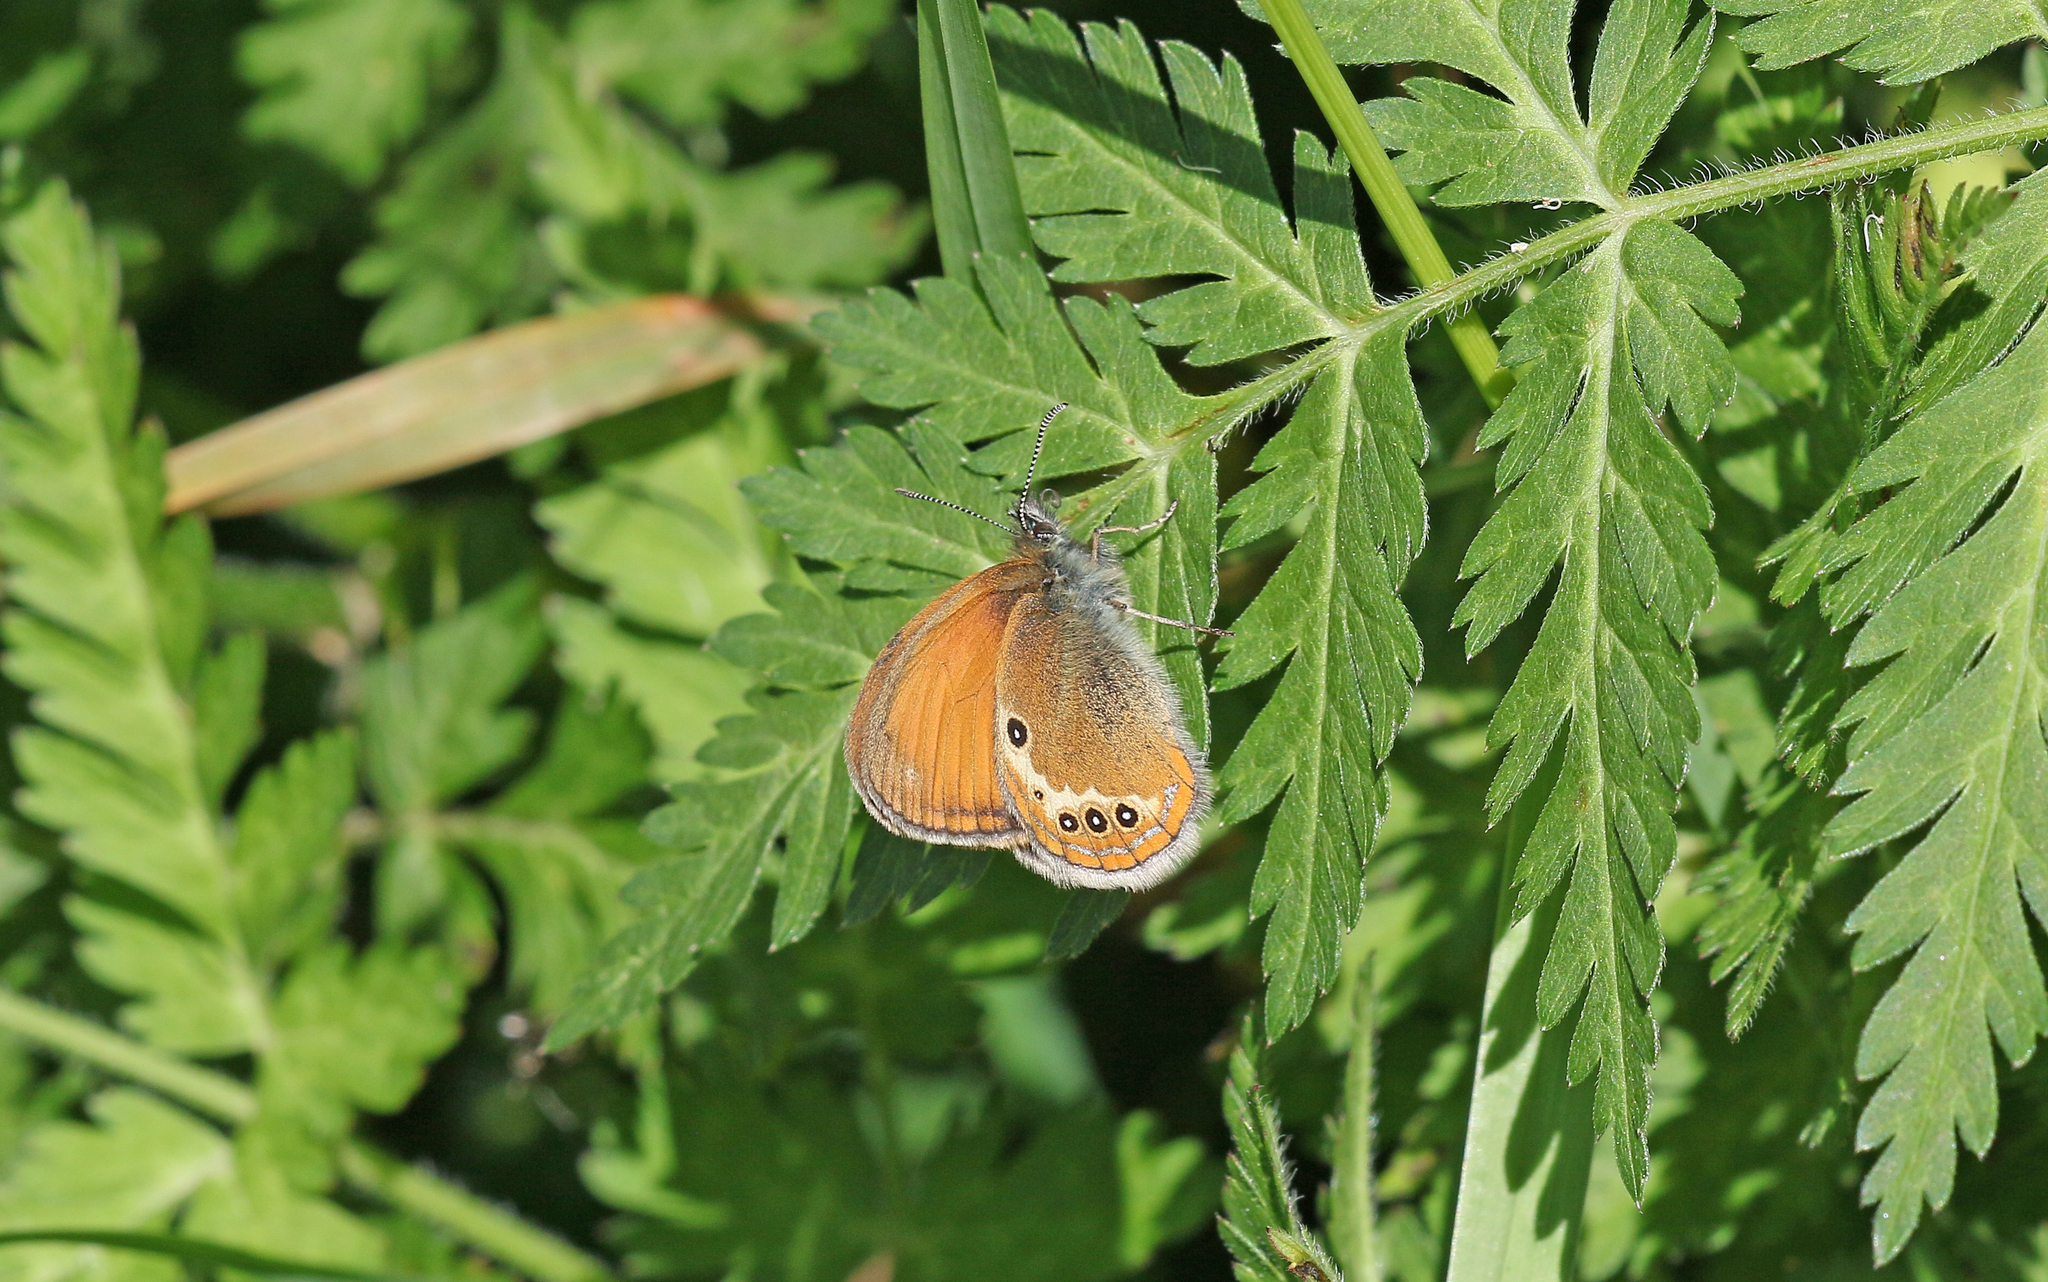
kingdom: Animalia
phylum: Arthropoda
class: Insecta
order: Lepidoptera
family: Nymphalidae
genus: Coenonympha
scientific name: Coenonympha arcania
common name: Pearly heath
